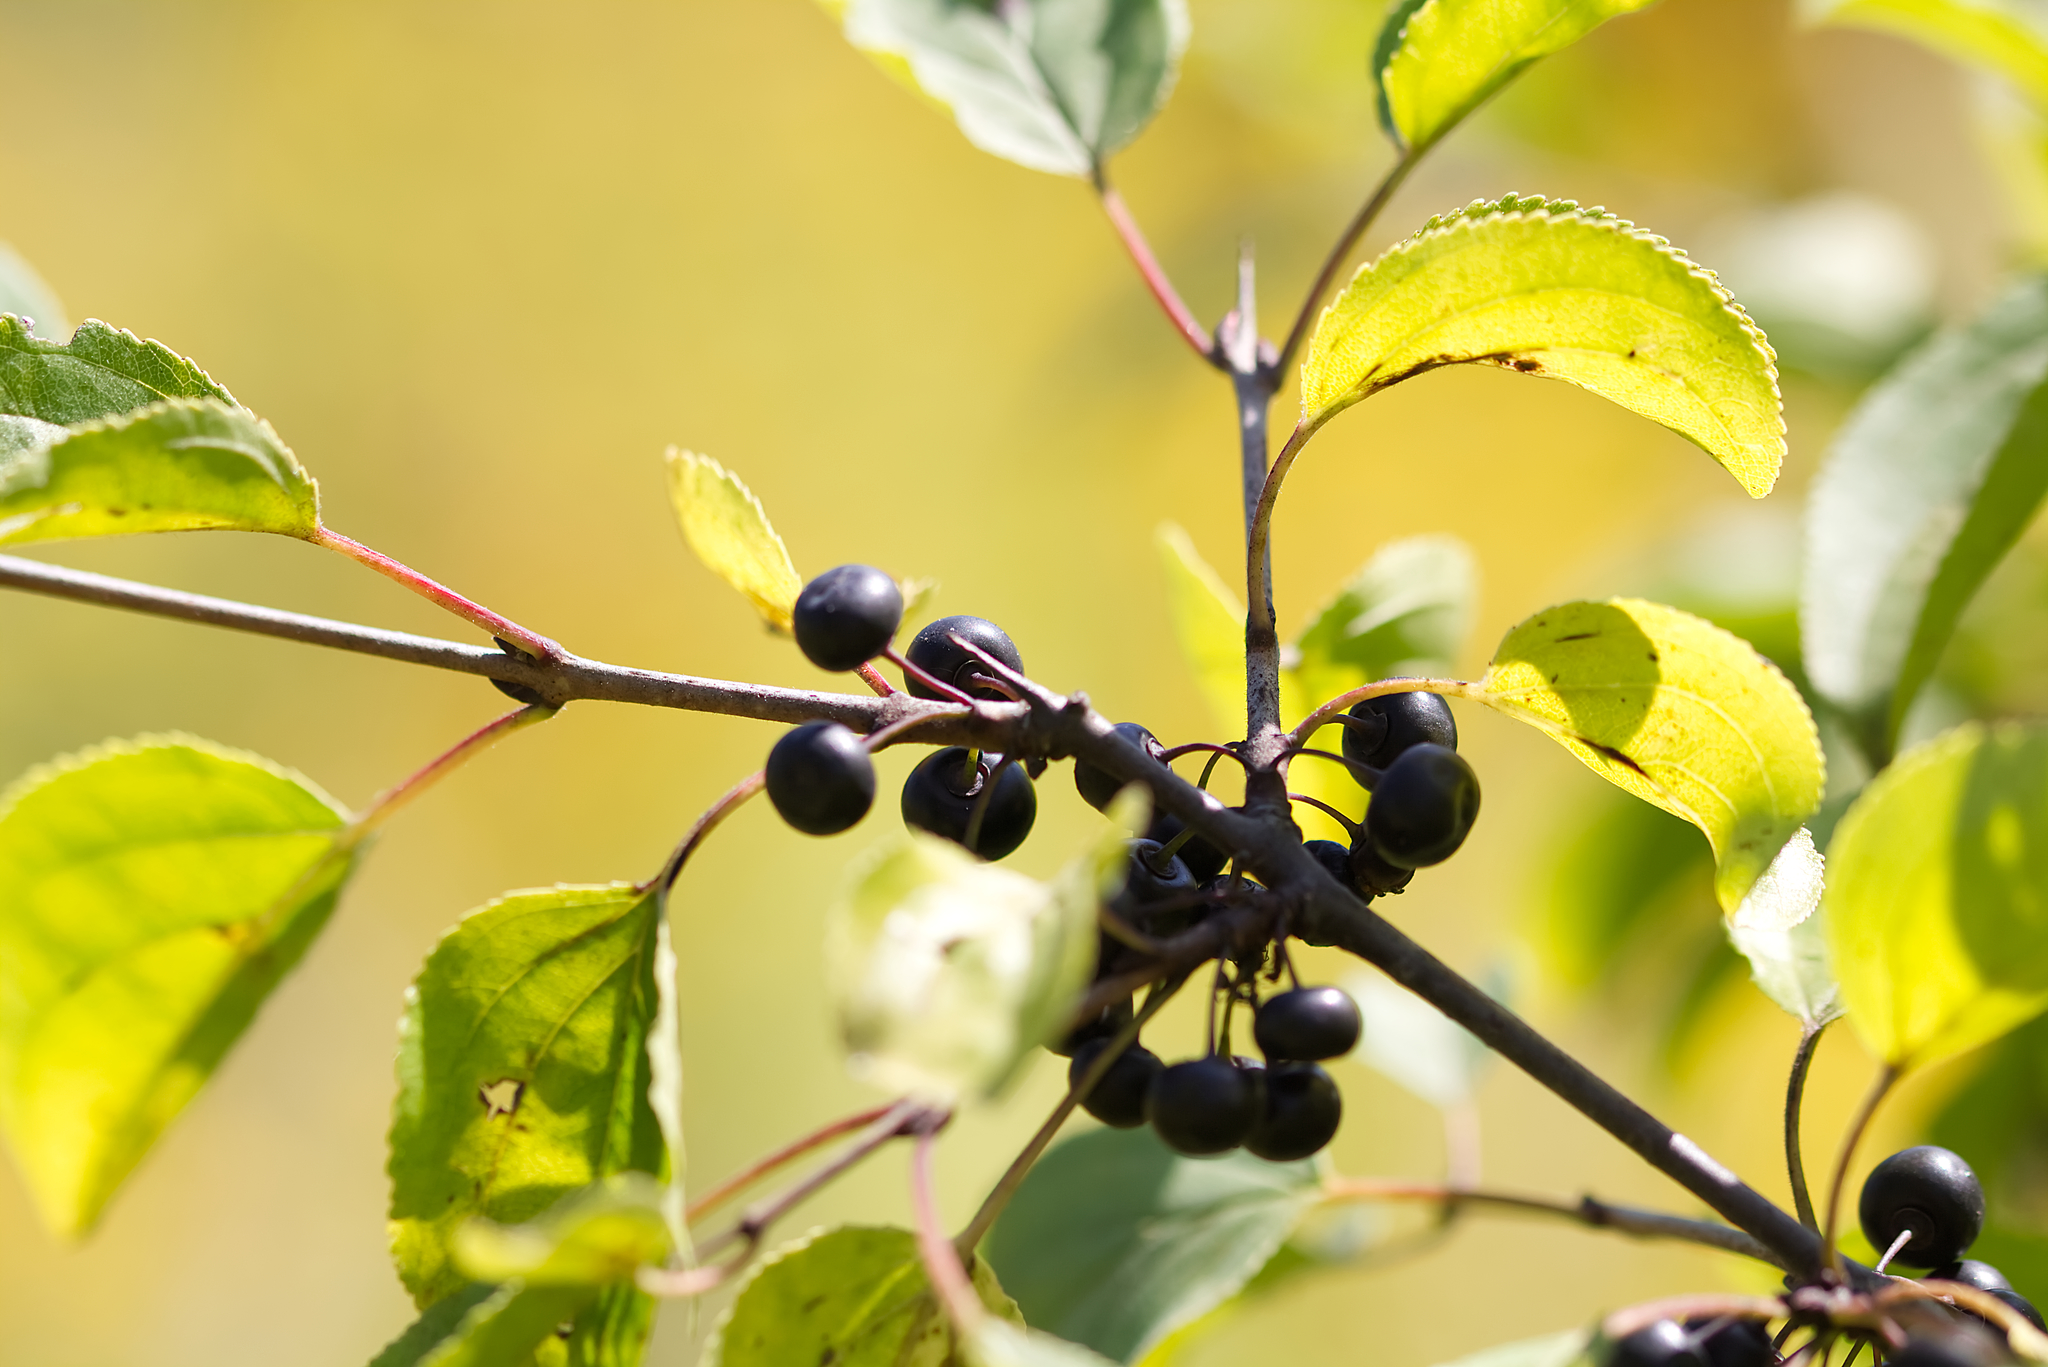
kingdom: Plantae
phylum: Tracheophyta
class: Magnoliopsida
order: Rosales
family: Rhamnaceae
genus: Rhamnus
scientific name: Rhamnus cathartica
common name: Common buckthorn
